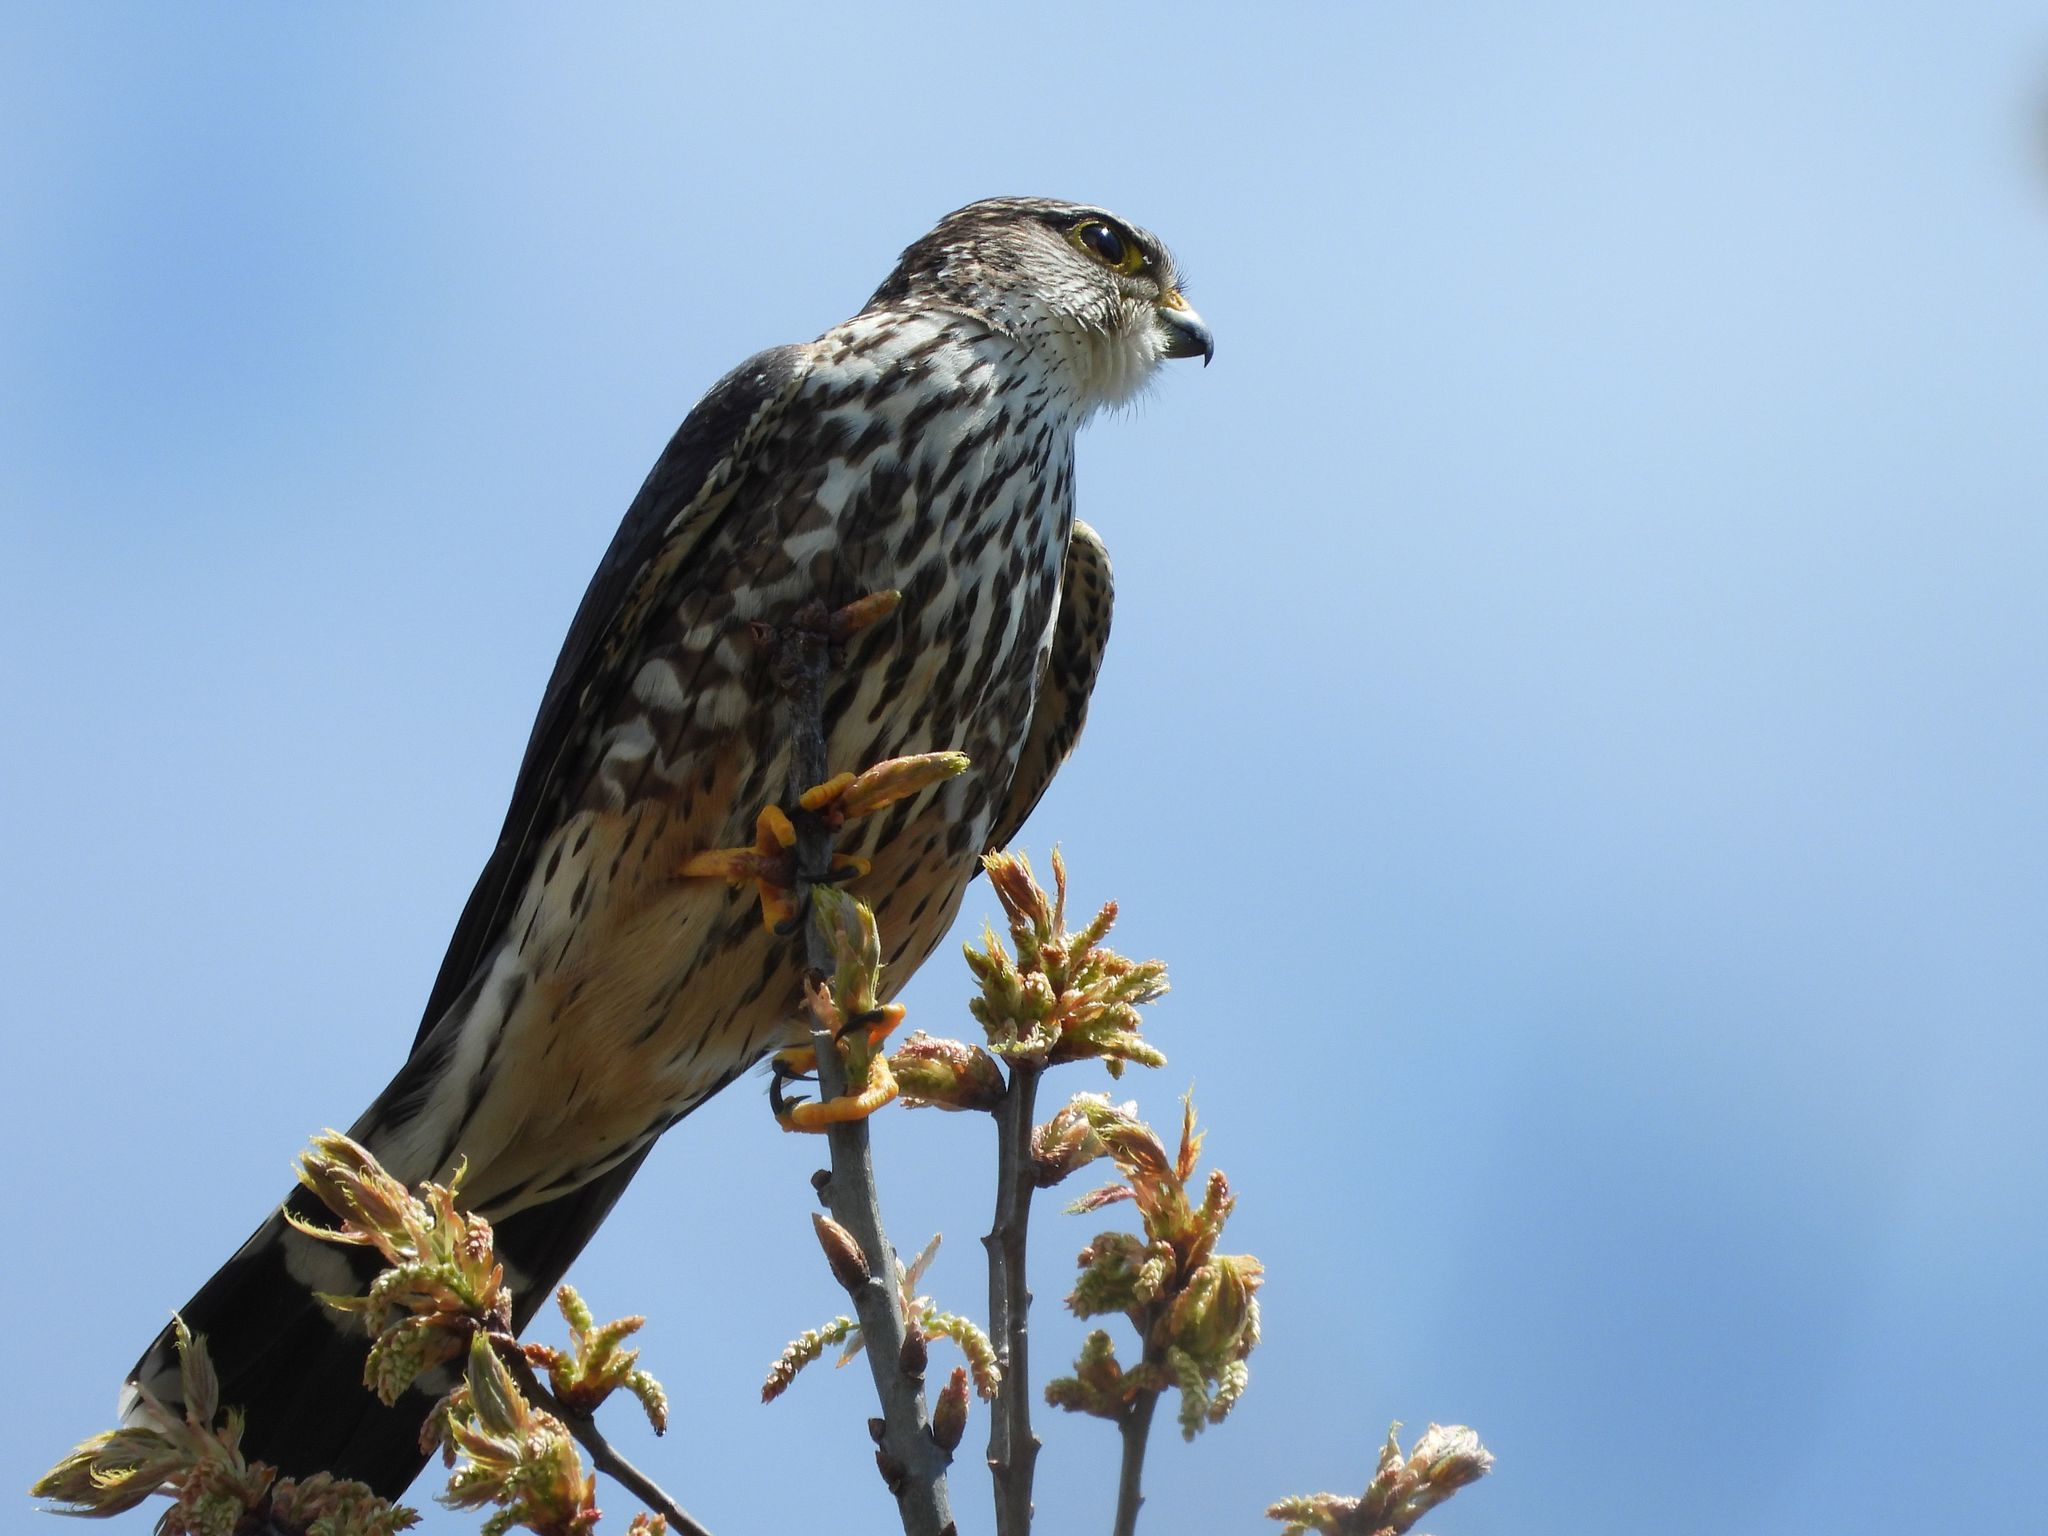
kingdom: Animalia
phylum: Chordata
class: Aves
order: Falconiformes
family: Falconidae
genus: Falco
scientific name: Falco columbarius
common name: Merlin
